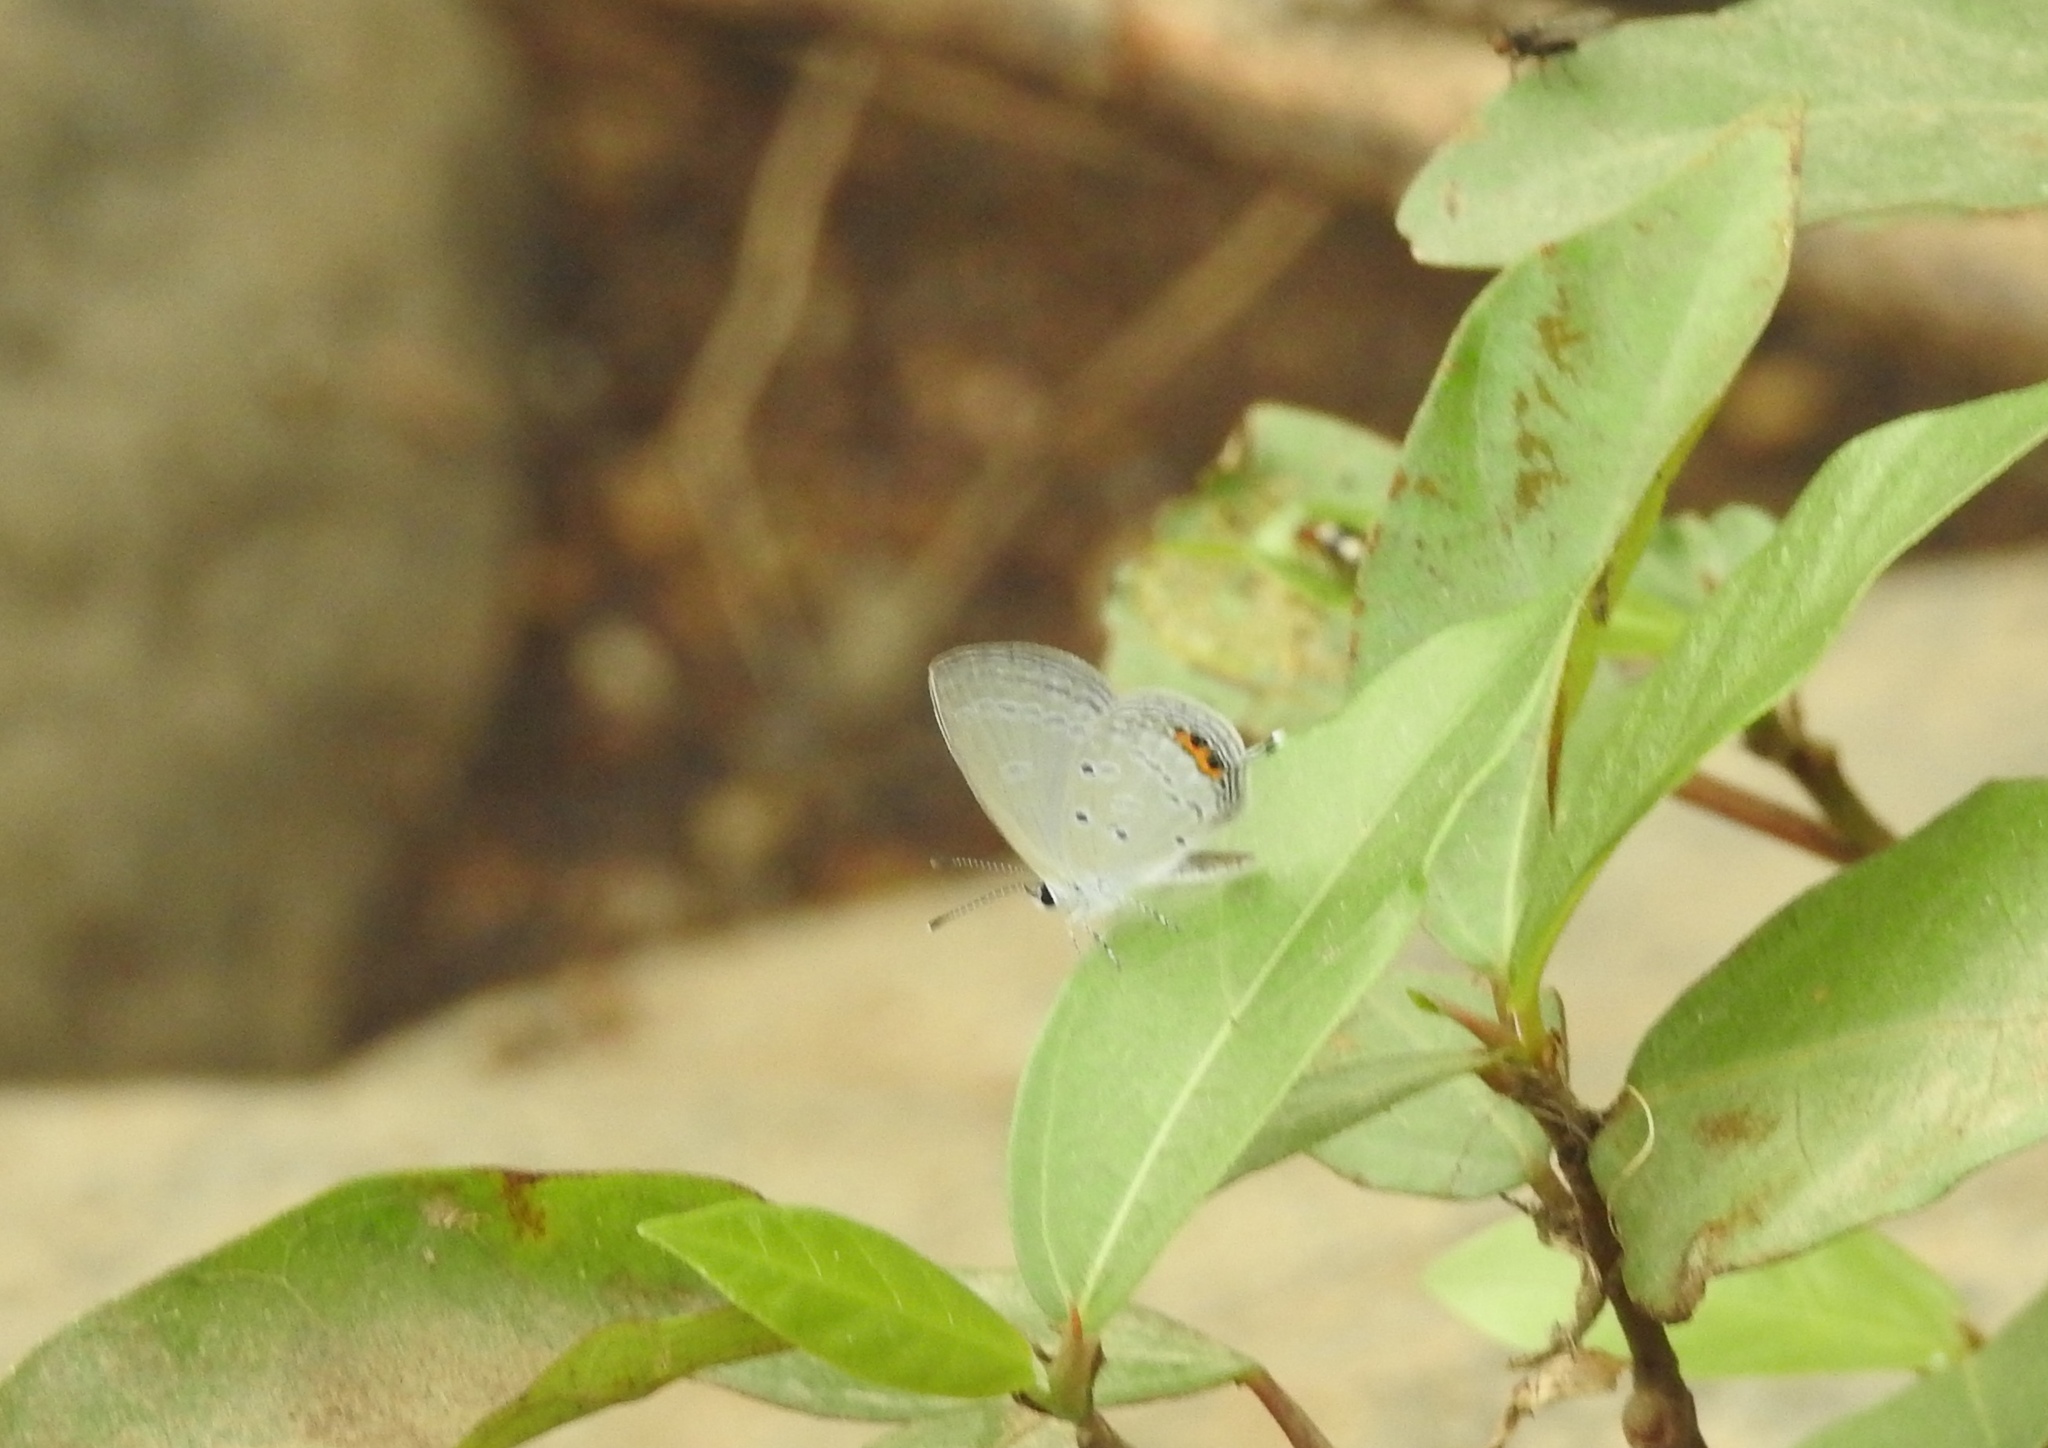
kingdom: Animalia
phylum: Arthropoda
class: Insecta
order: Lepidoptera
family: Lycaenidae
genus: Everes
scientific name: Everes lacturnus
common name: Orange-tipped pea-blue
